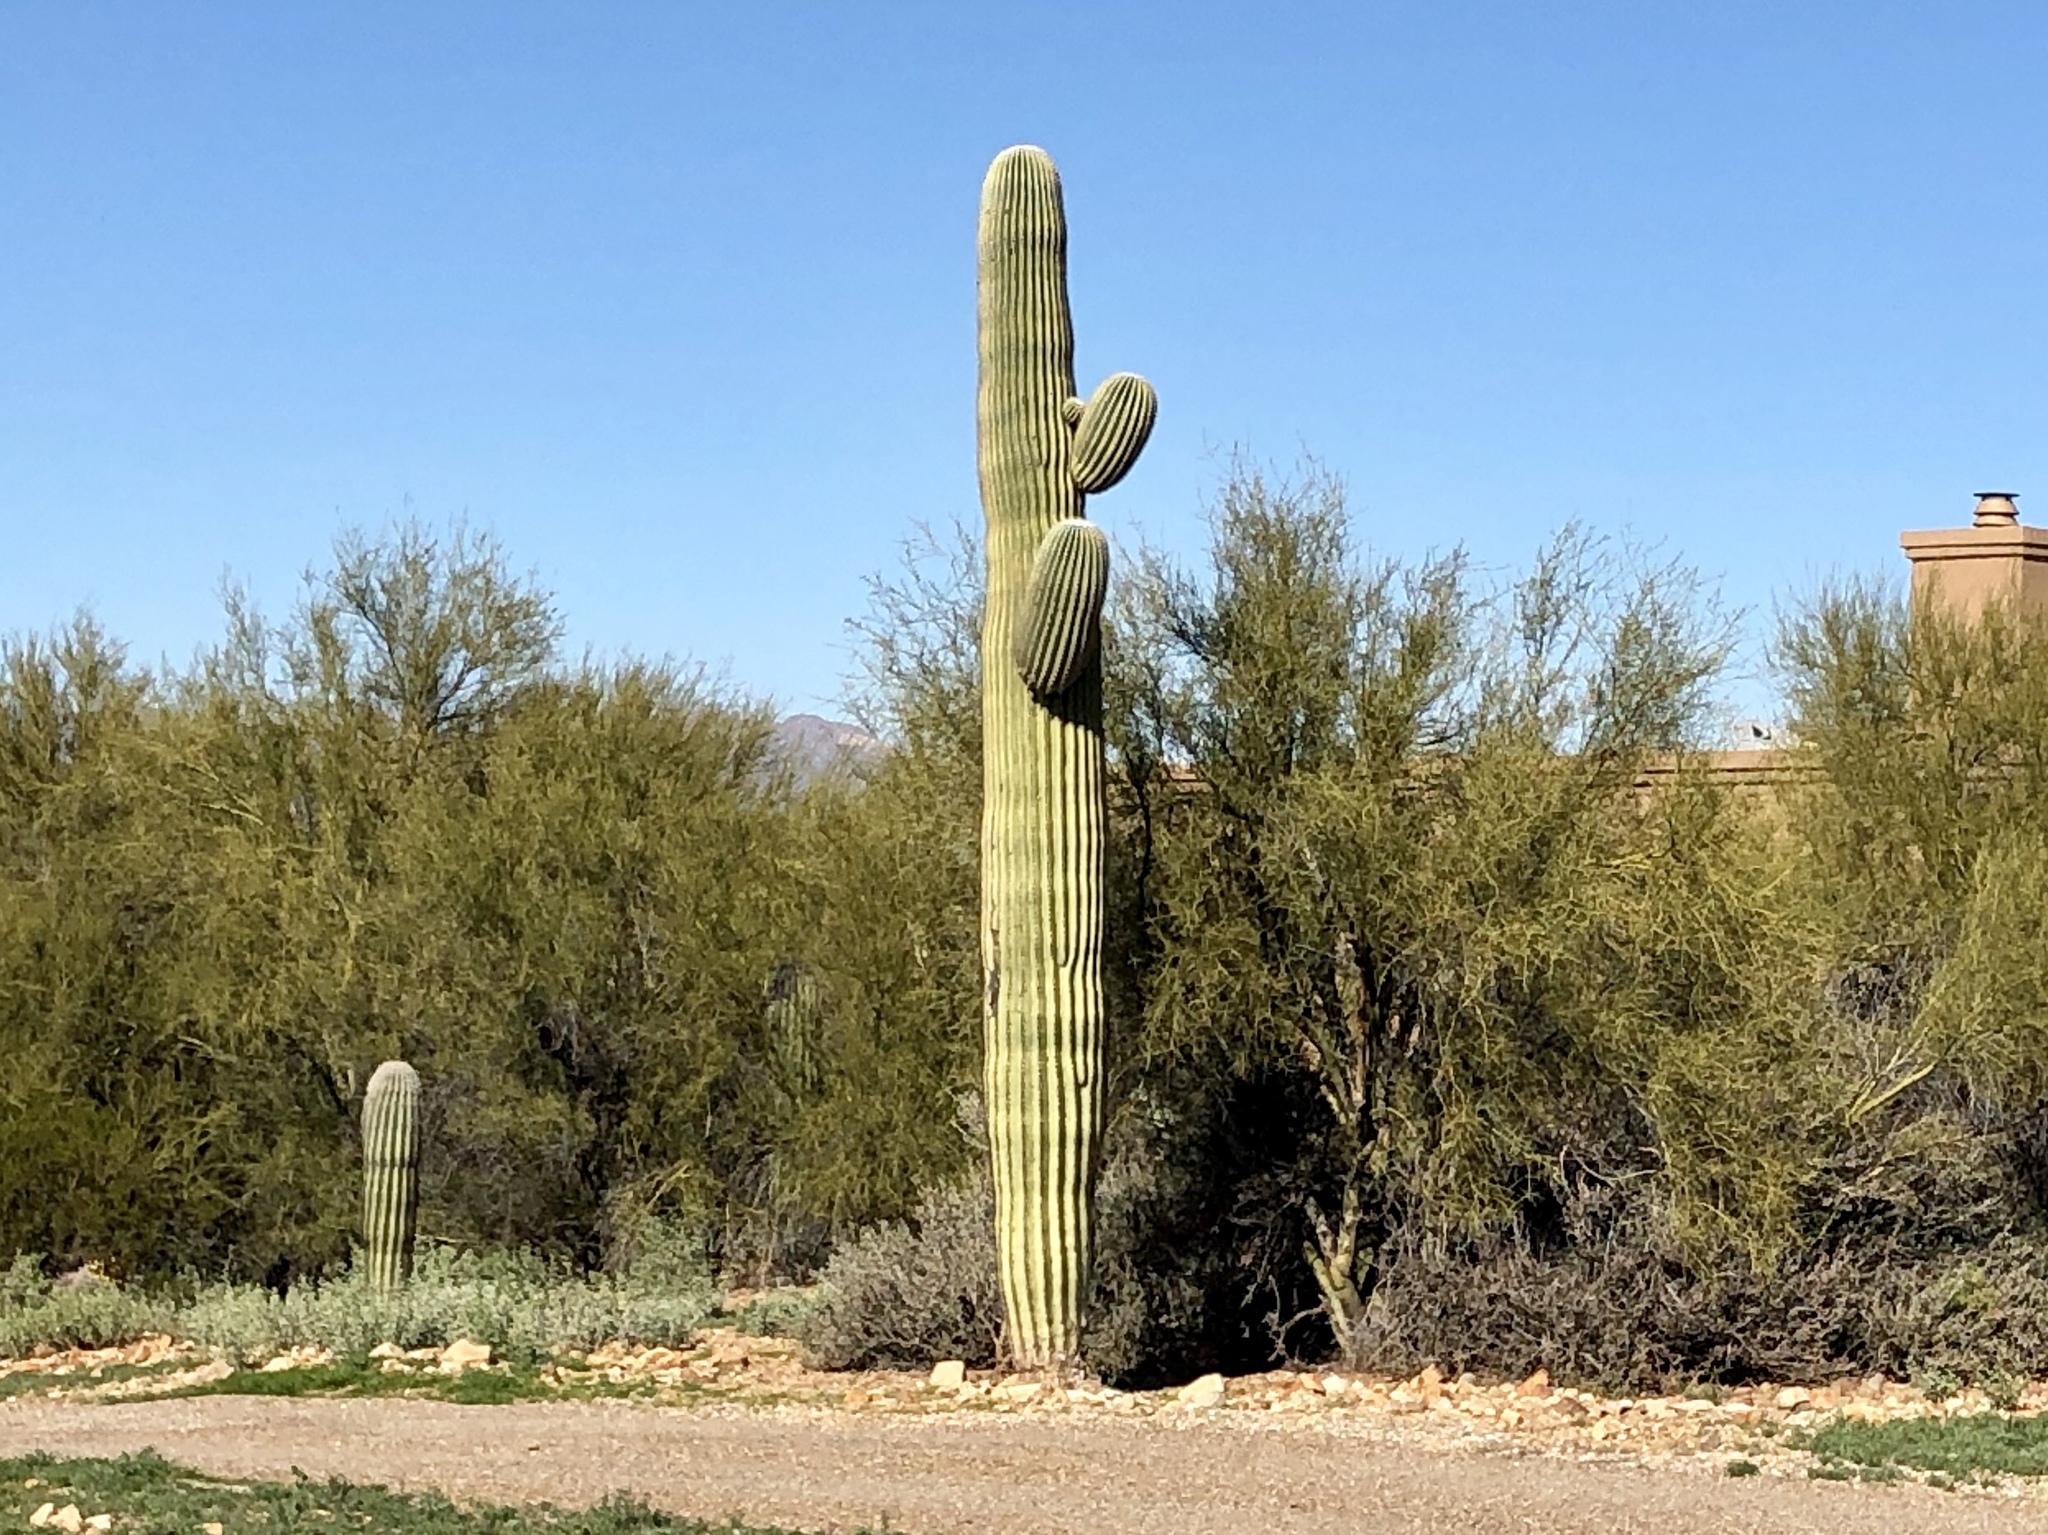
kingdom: Plantae
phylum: Tracheophyta
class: Magnoliopsida
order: Caryophyllales
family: Cactaceae
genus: Carnegiea
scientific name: Carnegiea gigantea
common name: Saguaro
